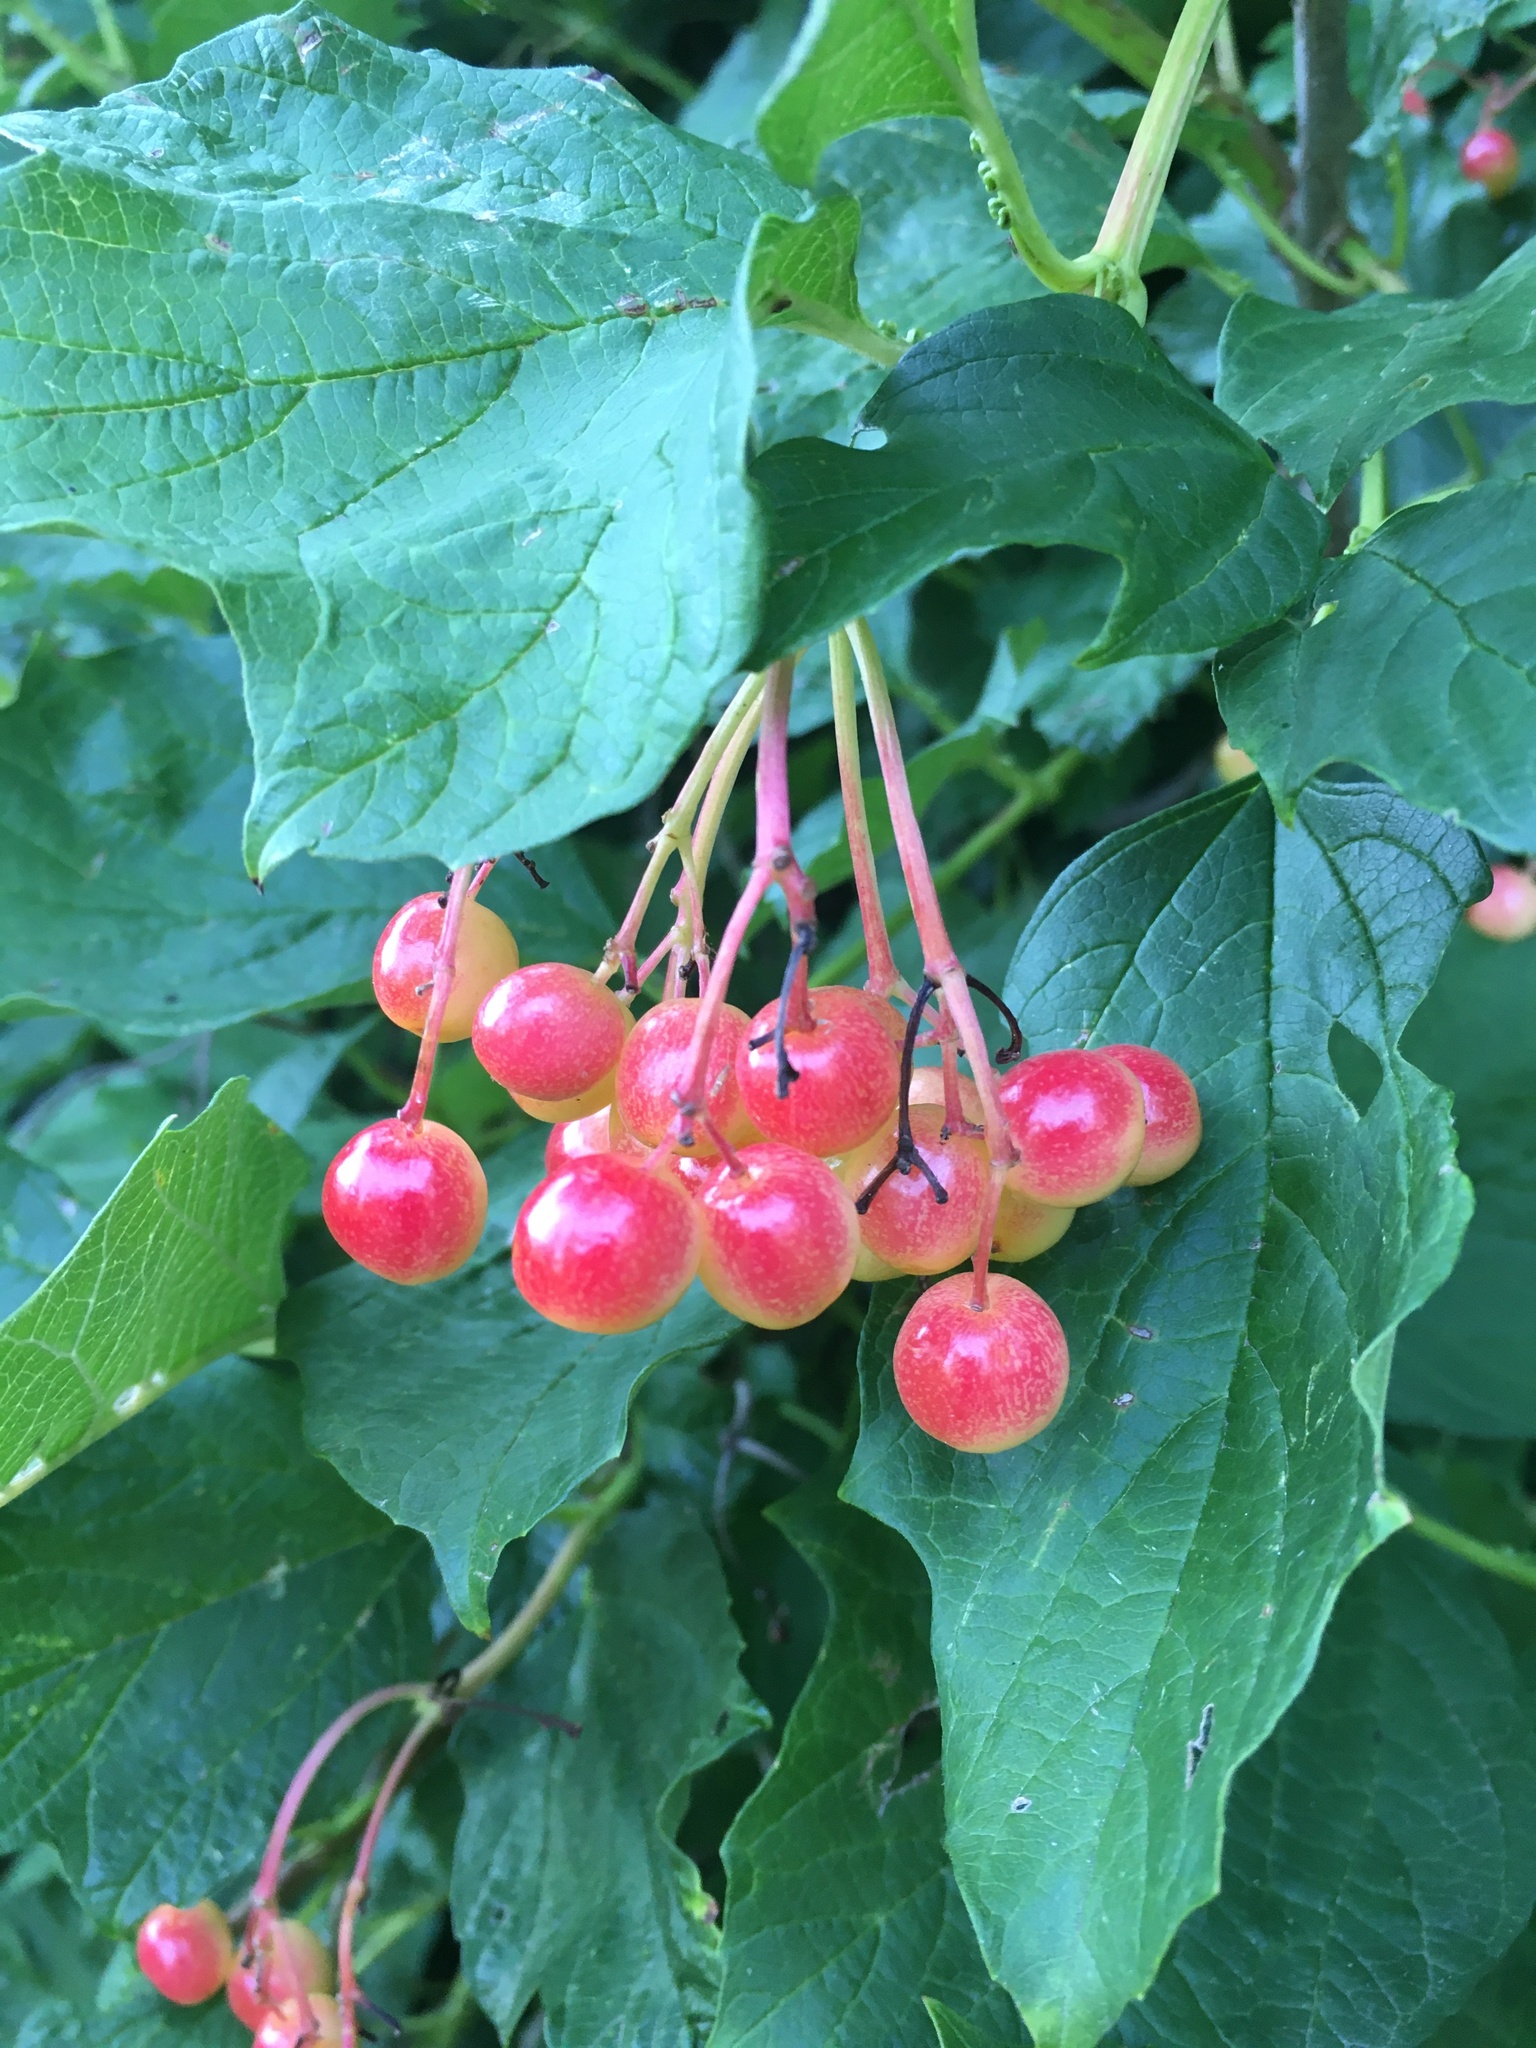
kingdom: Plantae
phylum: Tracheophyta
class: Magnoliopsida
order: Dipsacales
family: Viburnaceae
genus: Viburnum
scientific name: Viburnum opulus
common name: Guelder-rose
